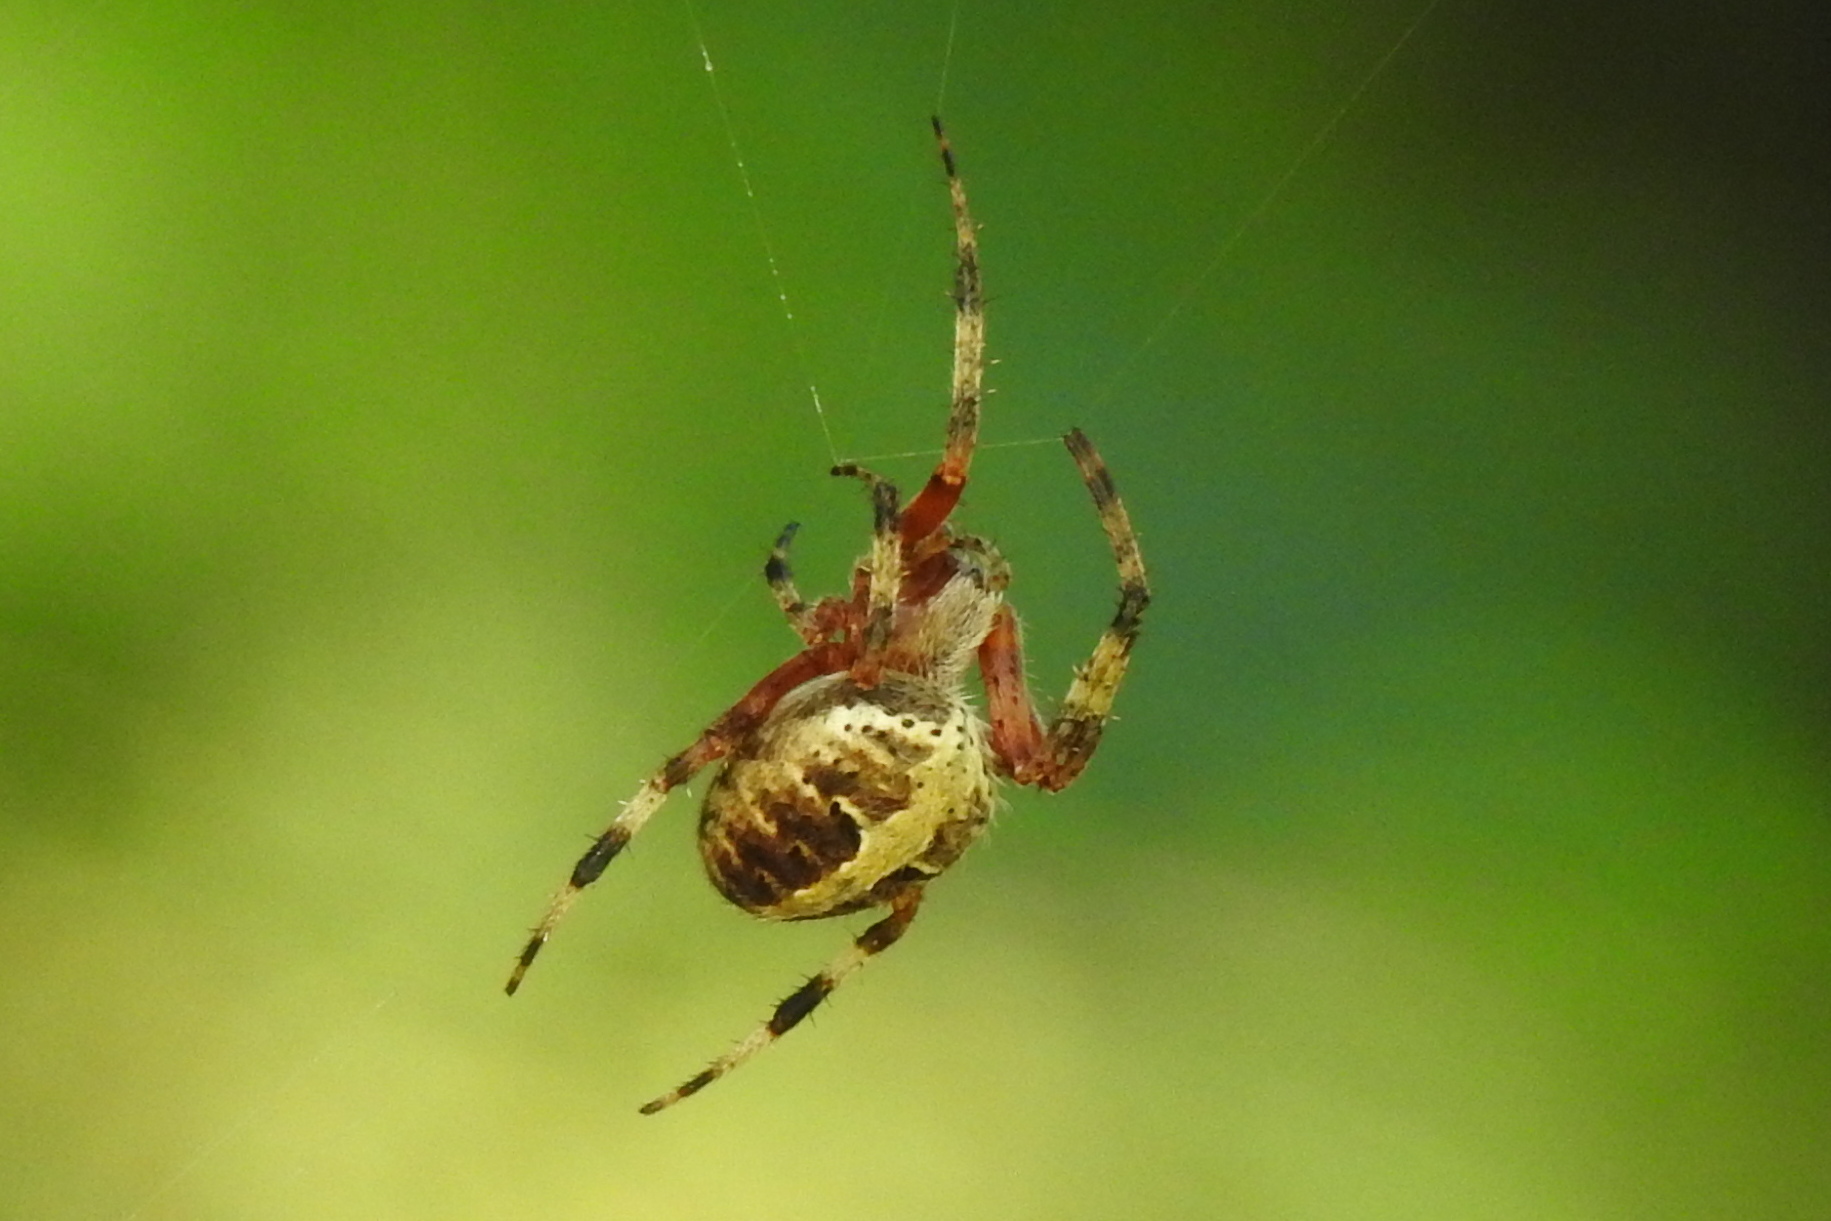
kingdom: Animalia
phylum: Arthropoda
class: Arachnida
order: Araneae
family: Araneidae
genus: Neoscona
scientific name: Neoscona domiciliorum
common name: Red-femured spotted orbweaver
